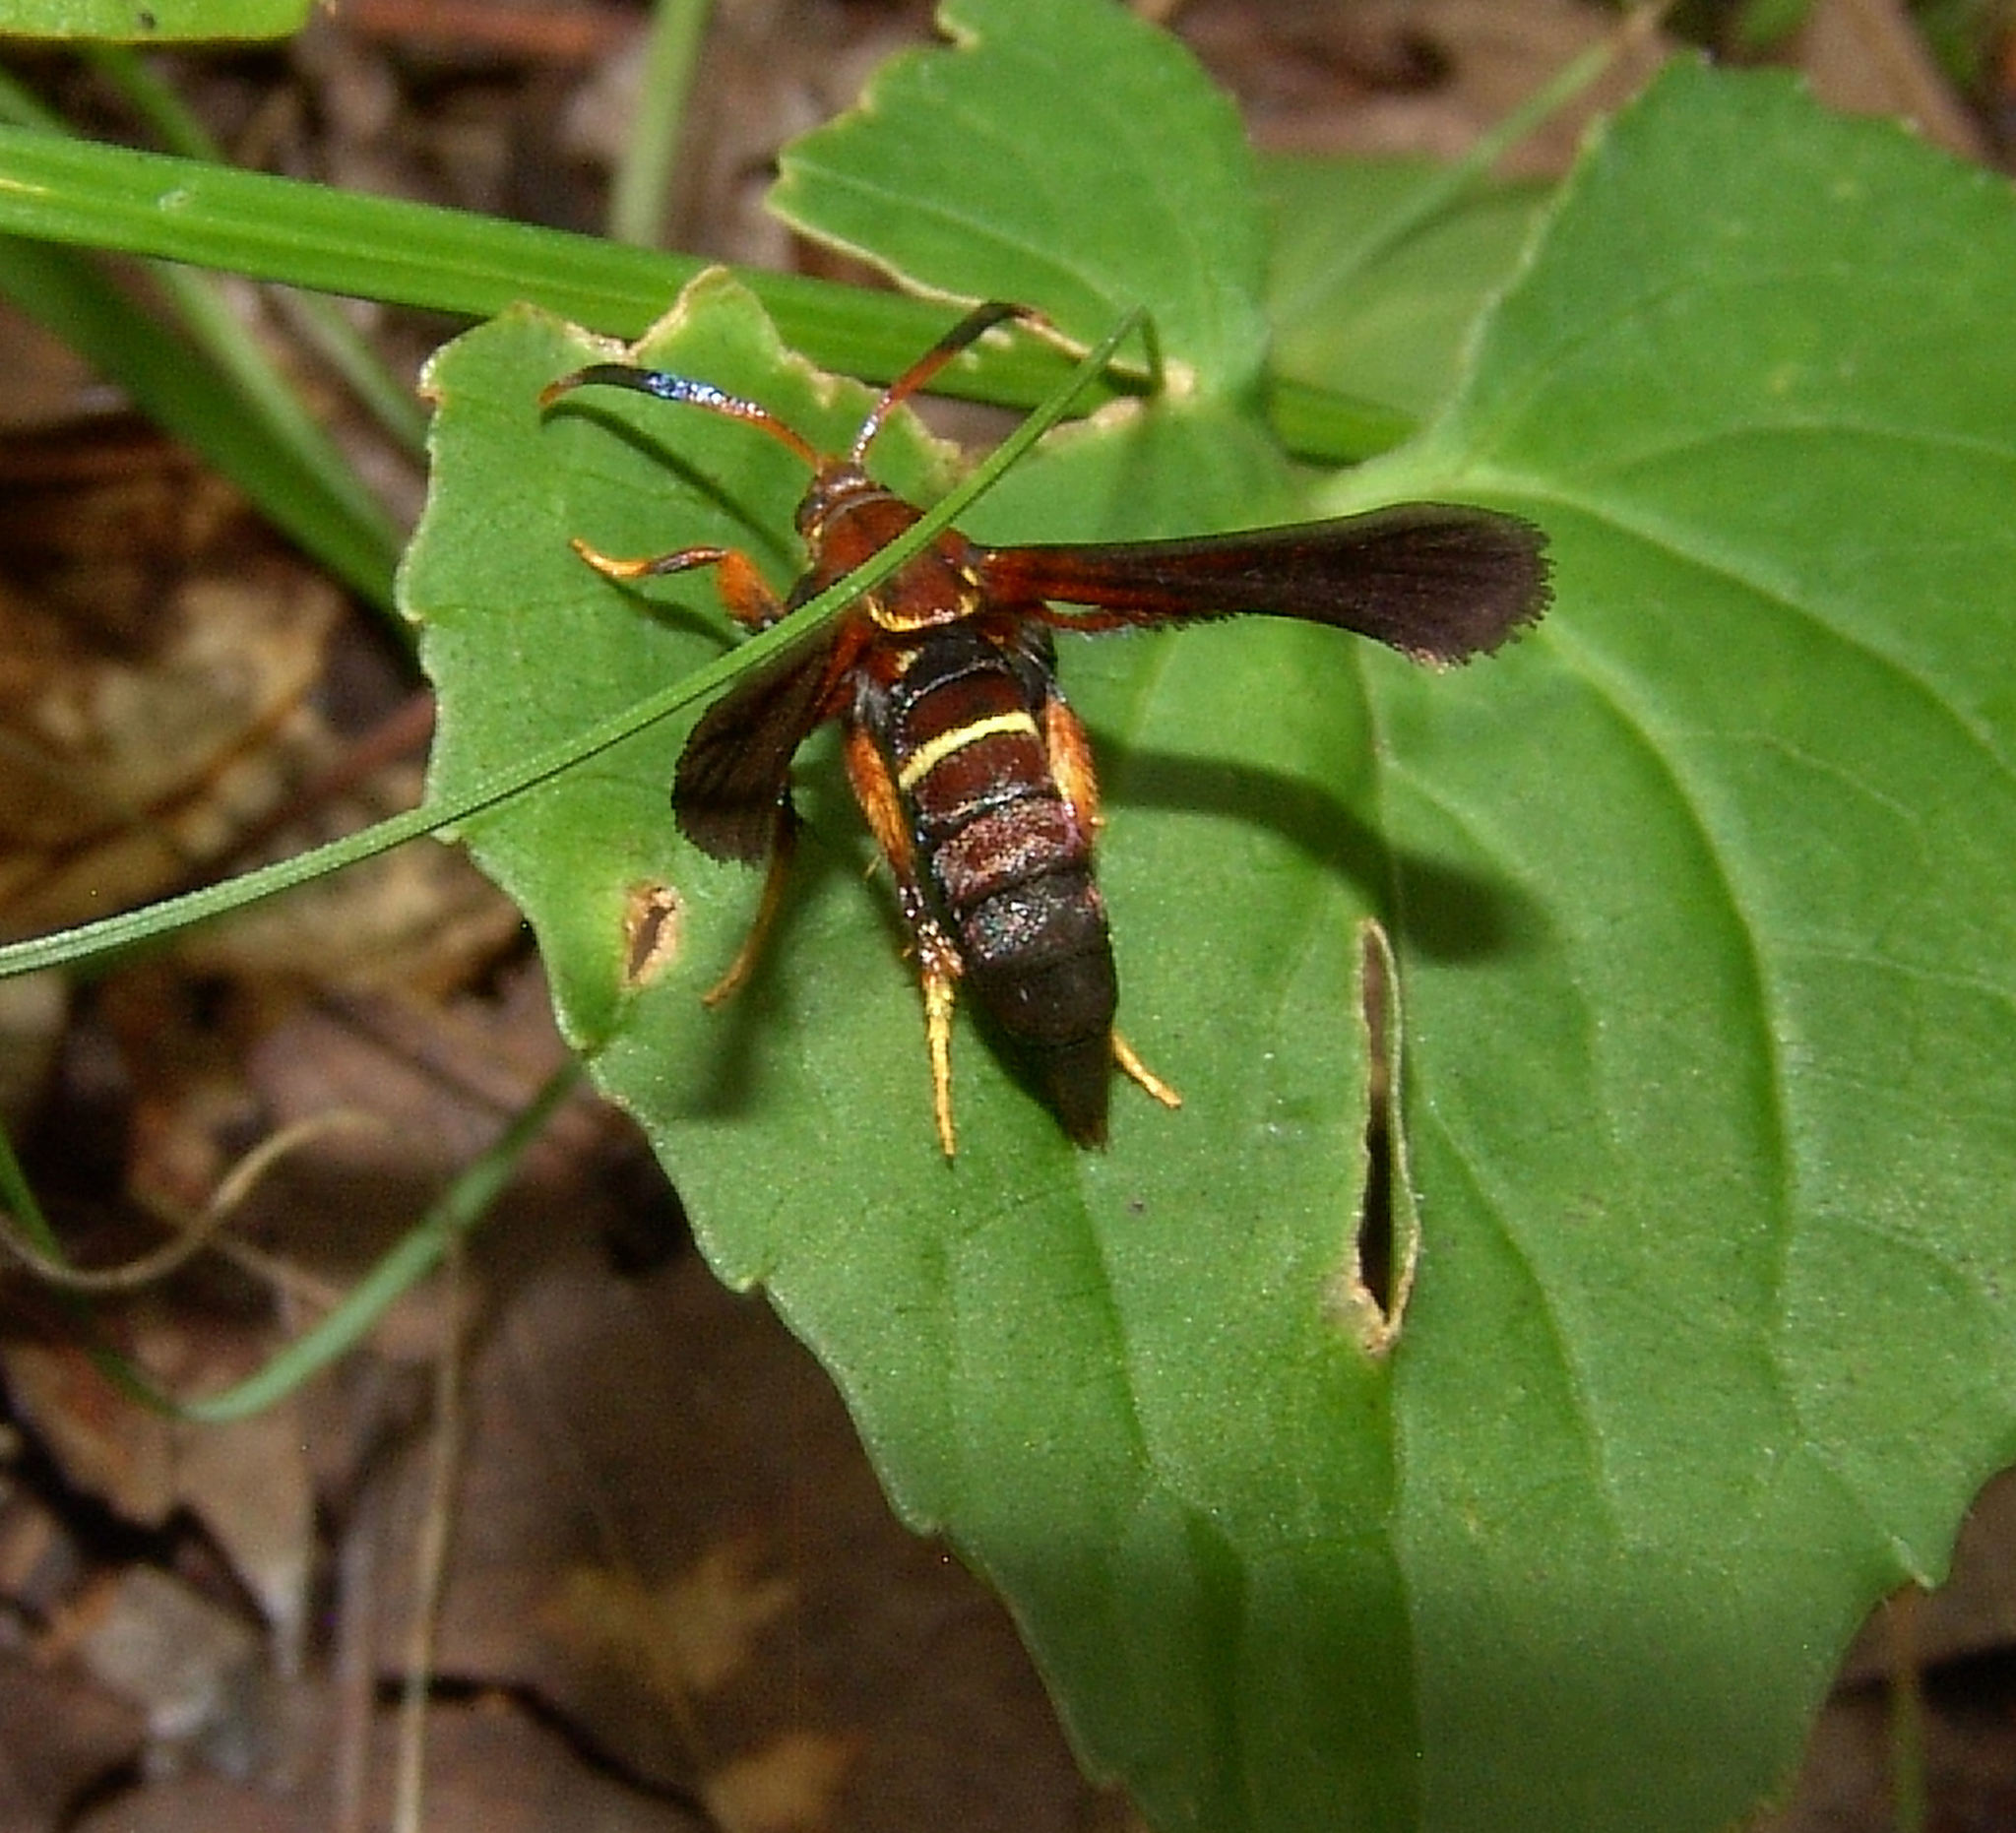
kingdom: Animalia
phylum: Arthropoda
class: Insecta
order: Lepidoptera
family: Sesiidae
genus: Vitacea
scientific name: Vitacea polistiformis
